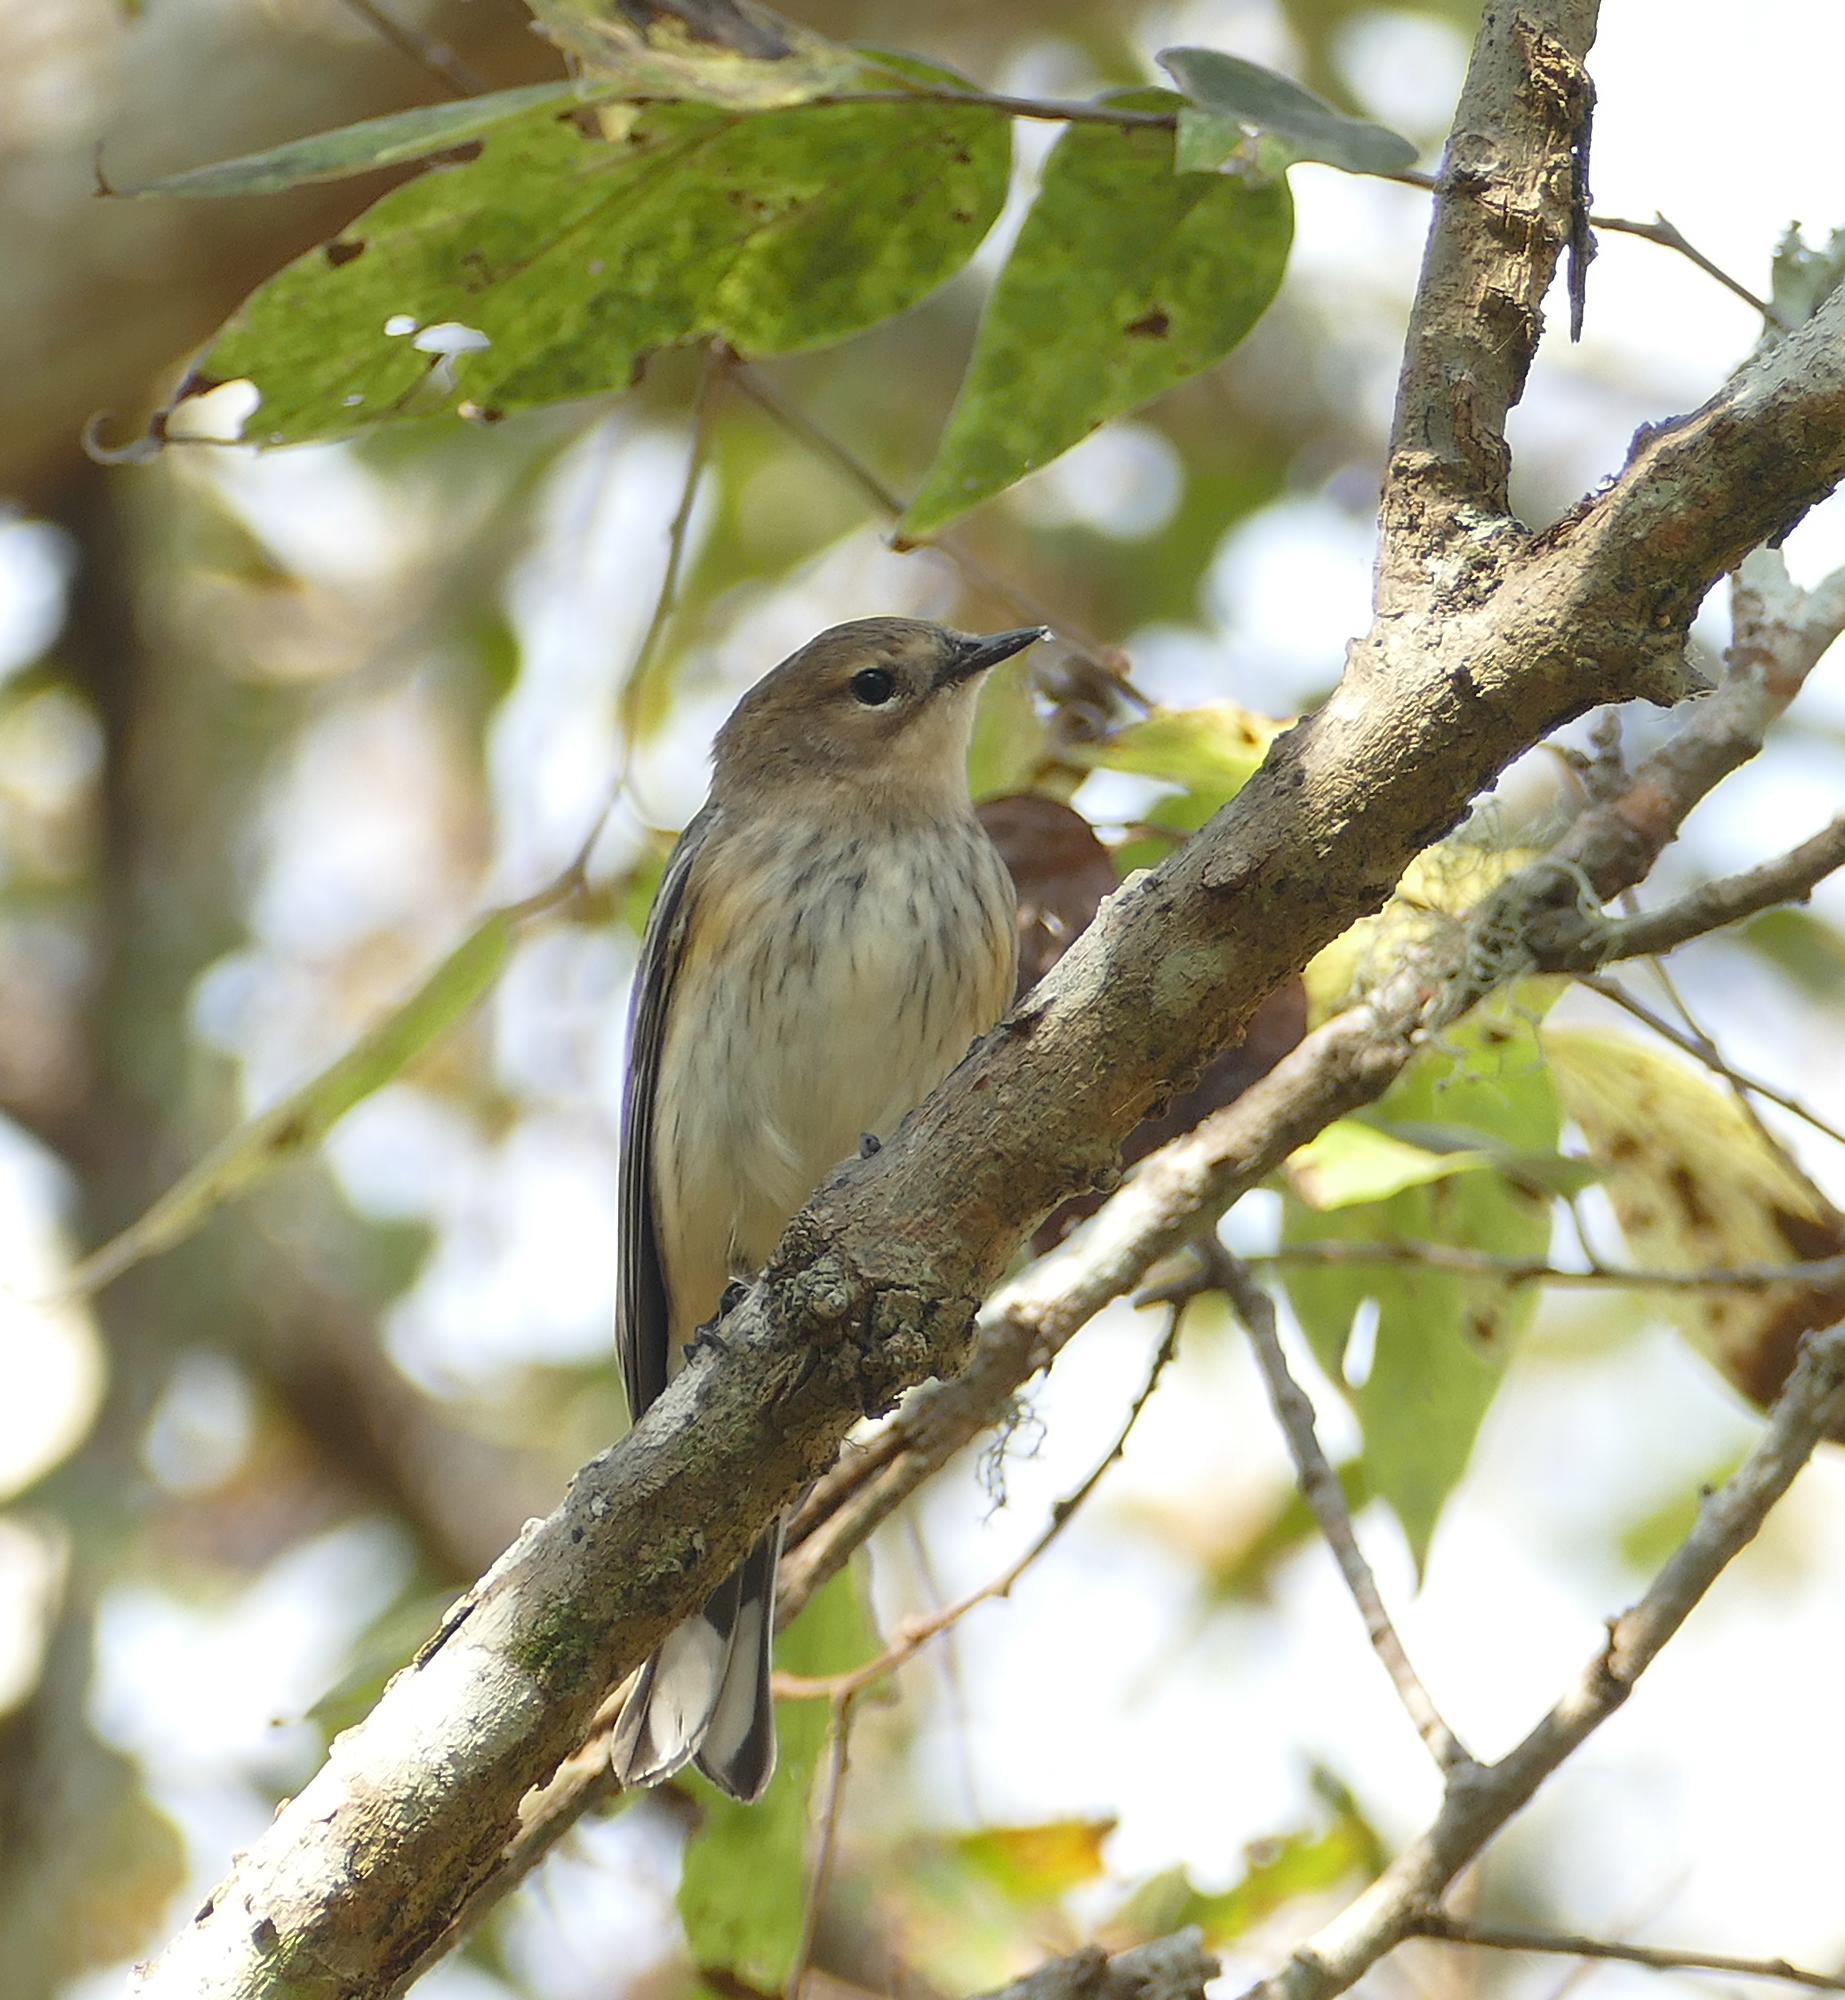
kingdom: Animalia
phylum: Chordata
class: Aves
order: Passeriformes
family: Parulidae
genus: Setophaga
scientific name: Setophaga coronata
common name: Myrtle warbler
